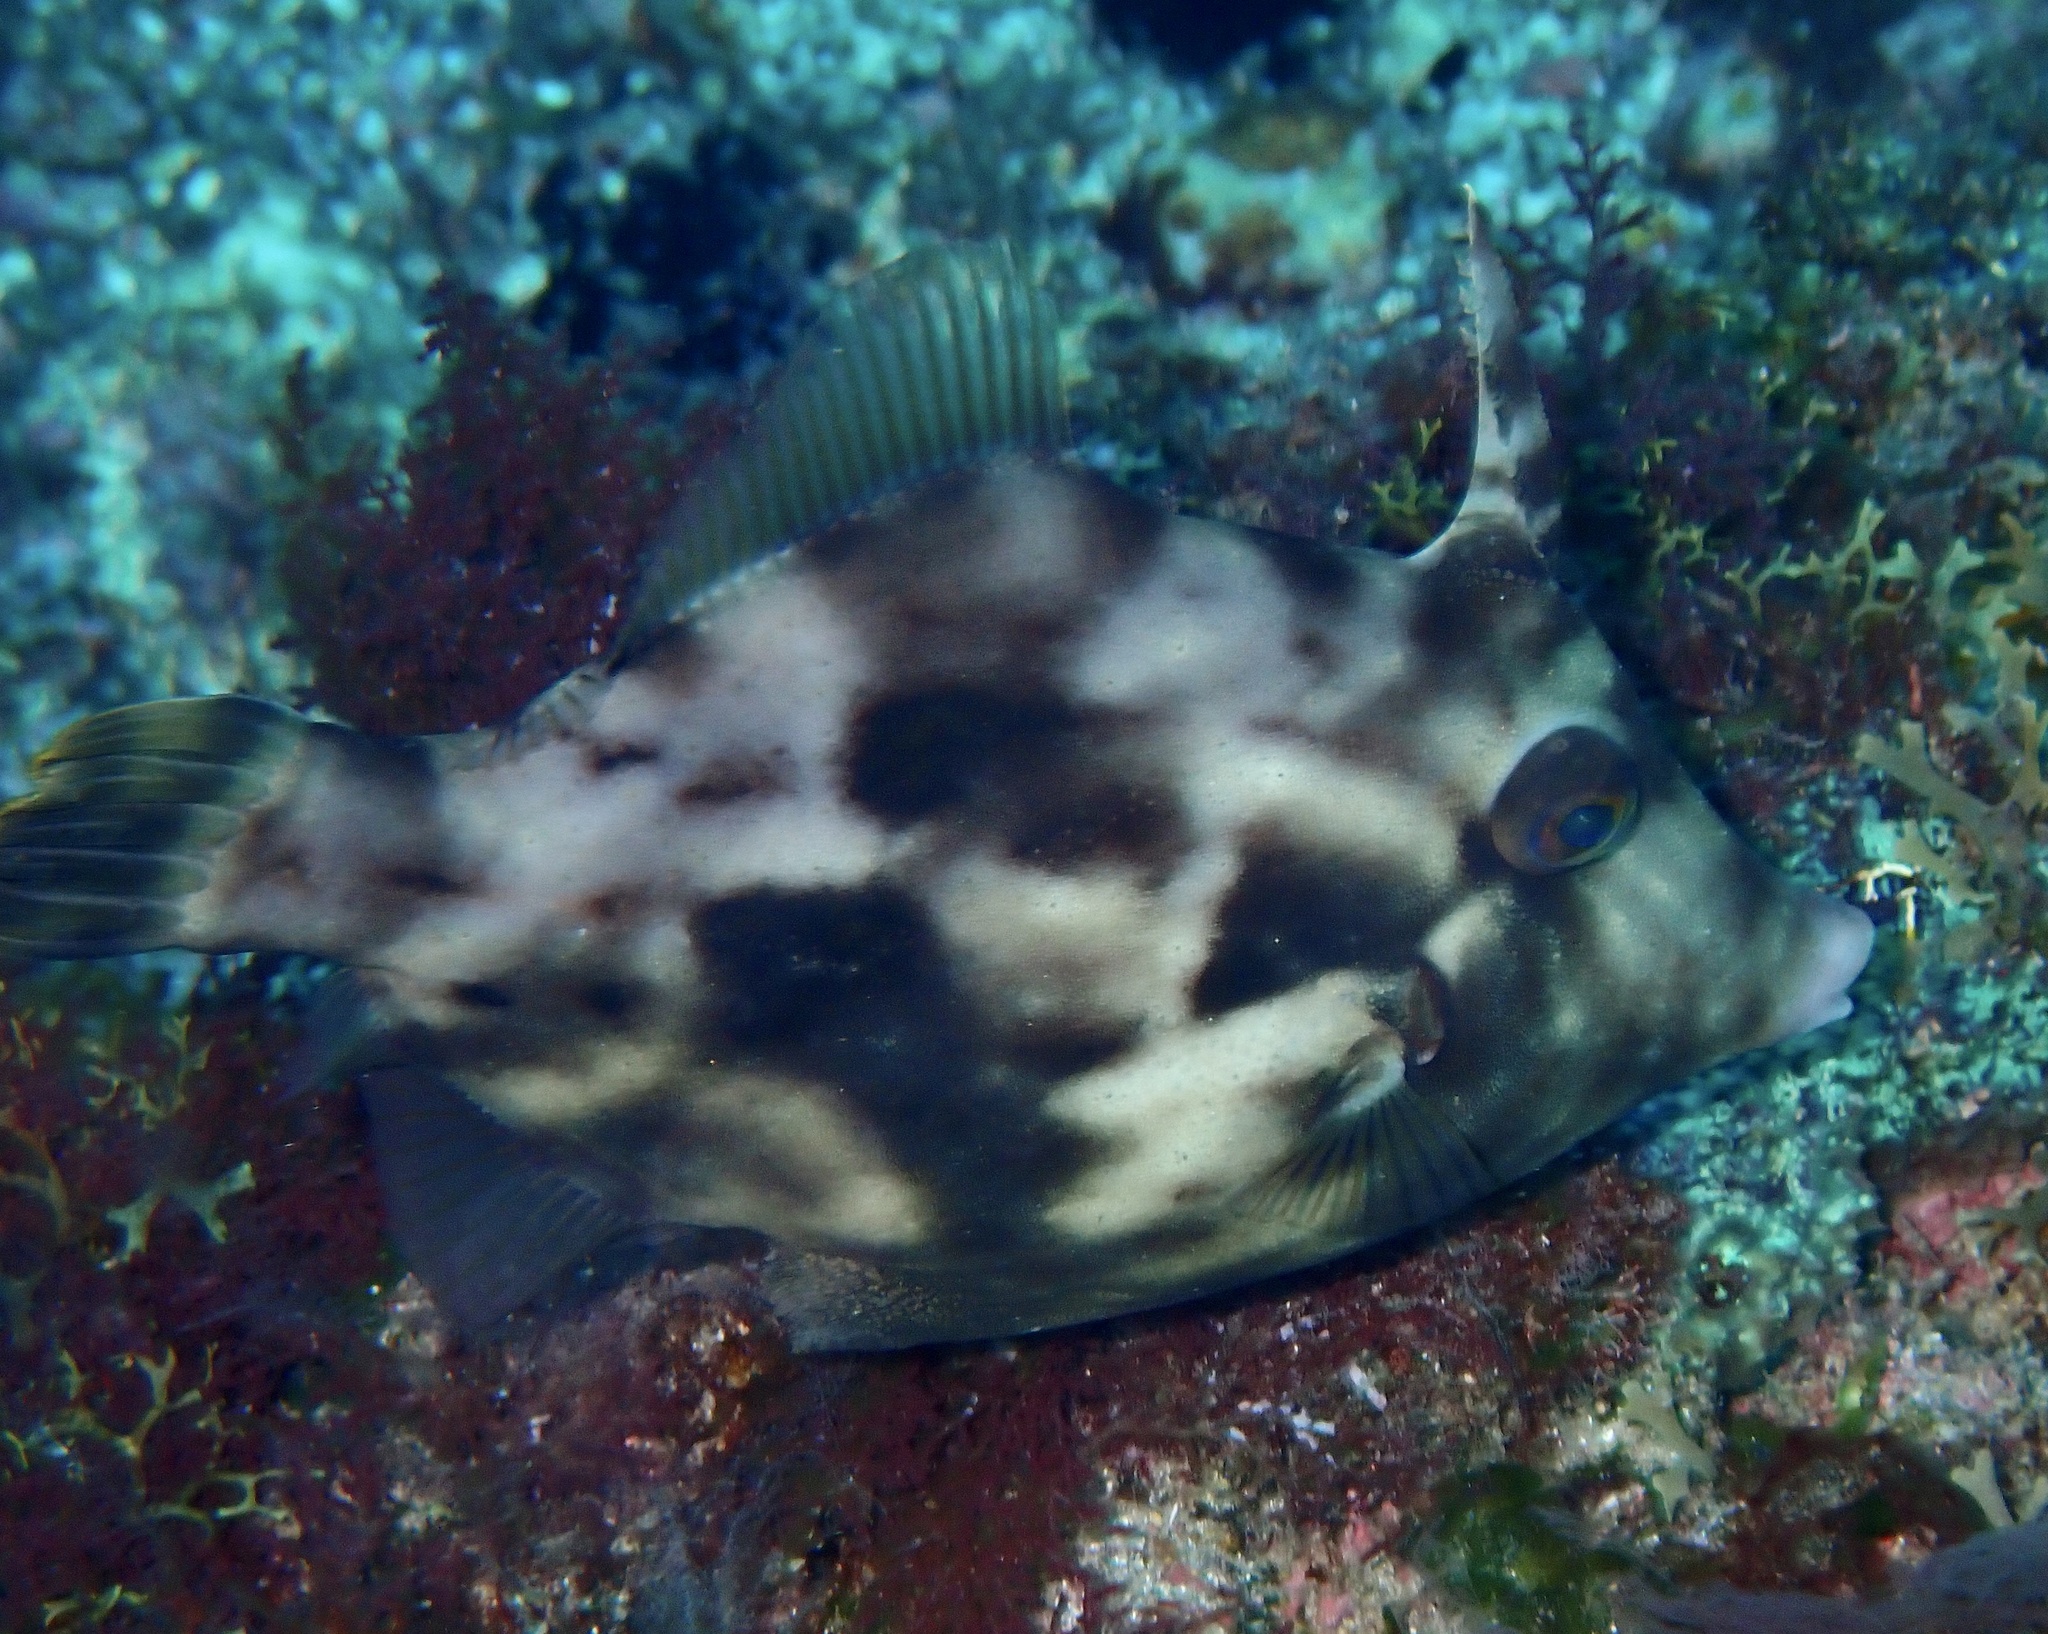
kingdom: Animalia
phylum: Chordata
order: Tetraodontiformes
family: Monacanthidae
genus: Stephanolepis
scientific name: Stephanolepis hispidus
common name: Planehead filefish
